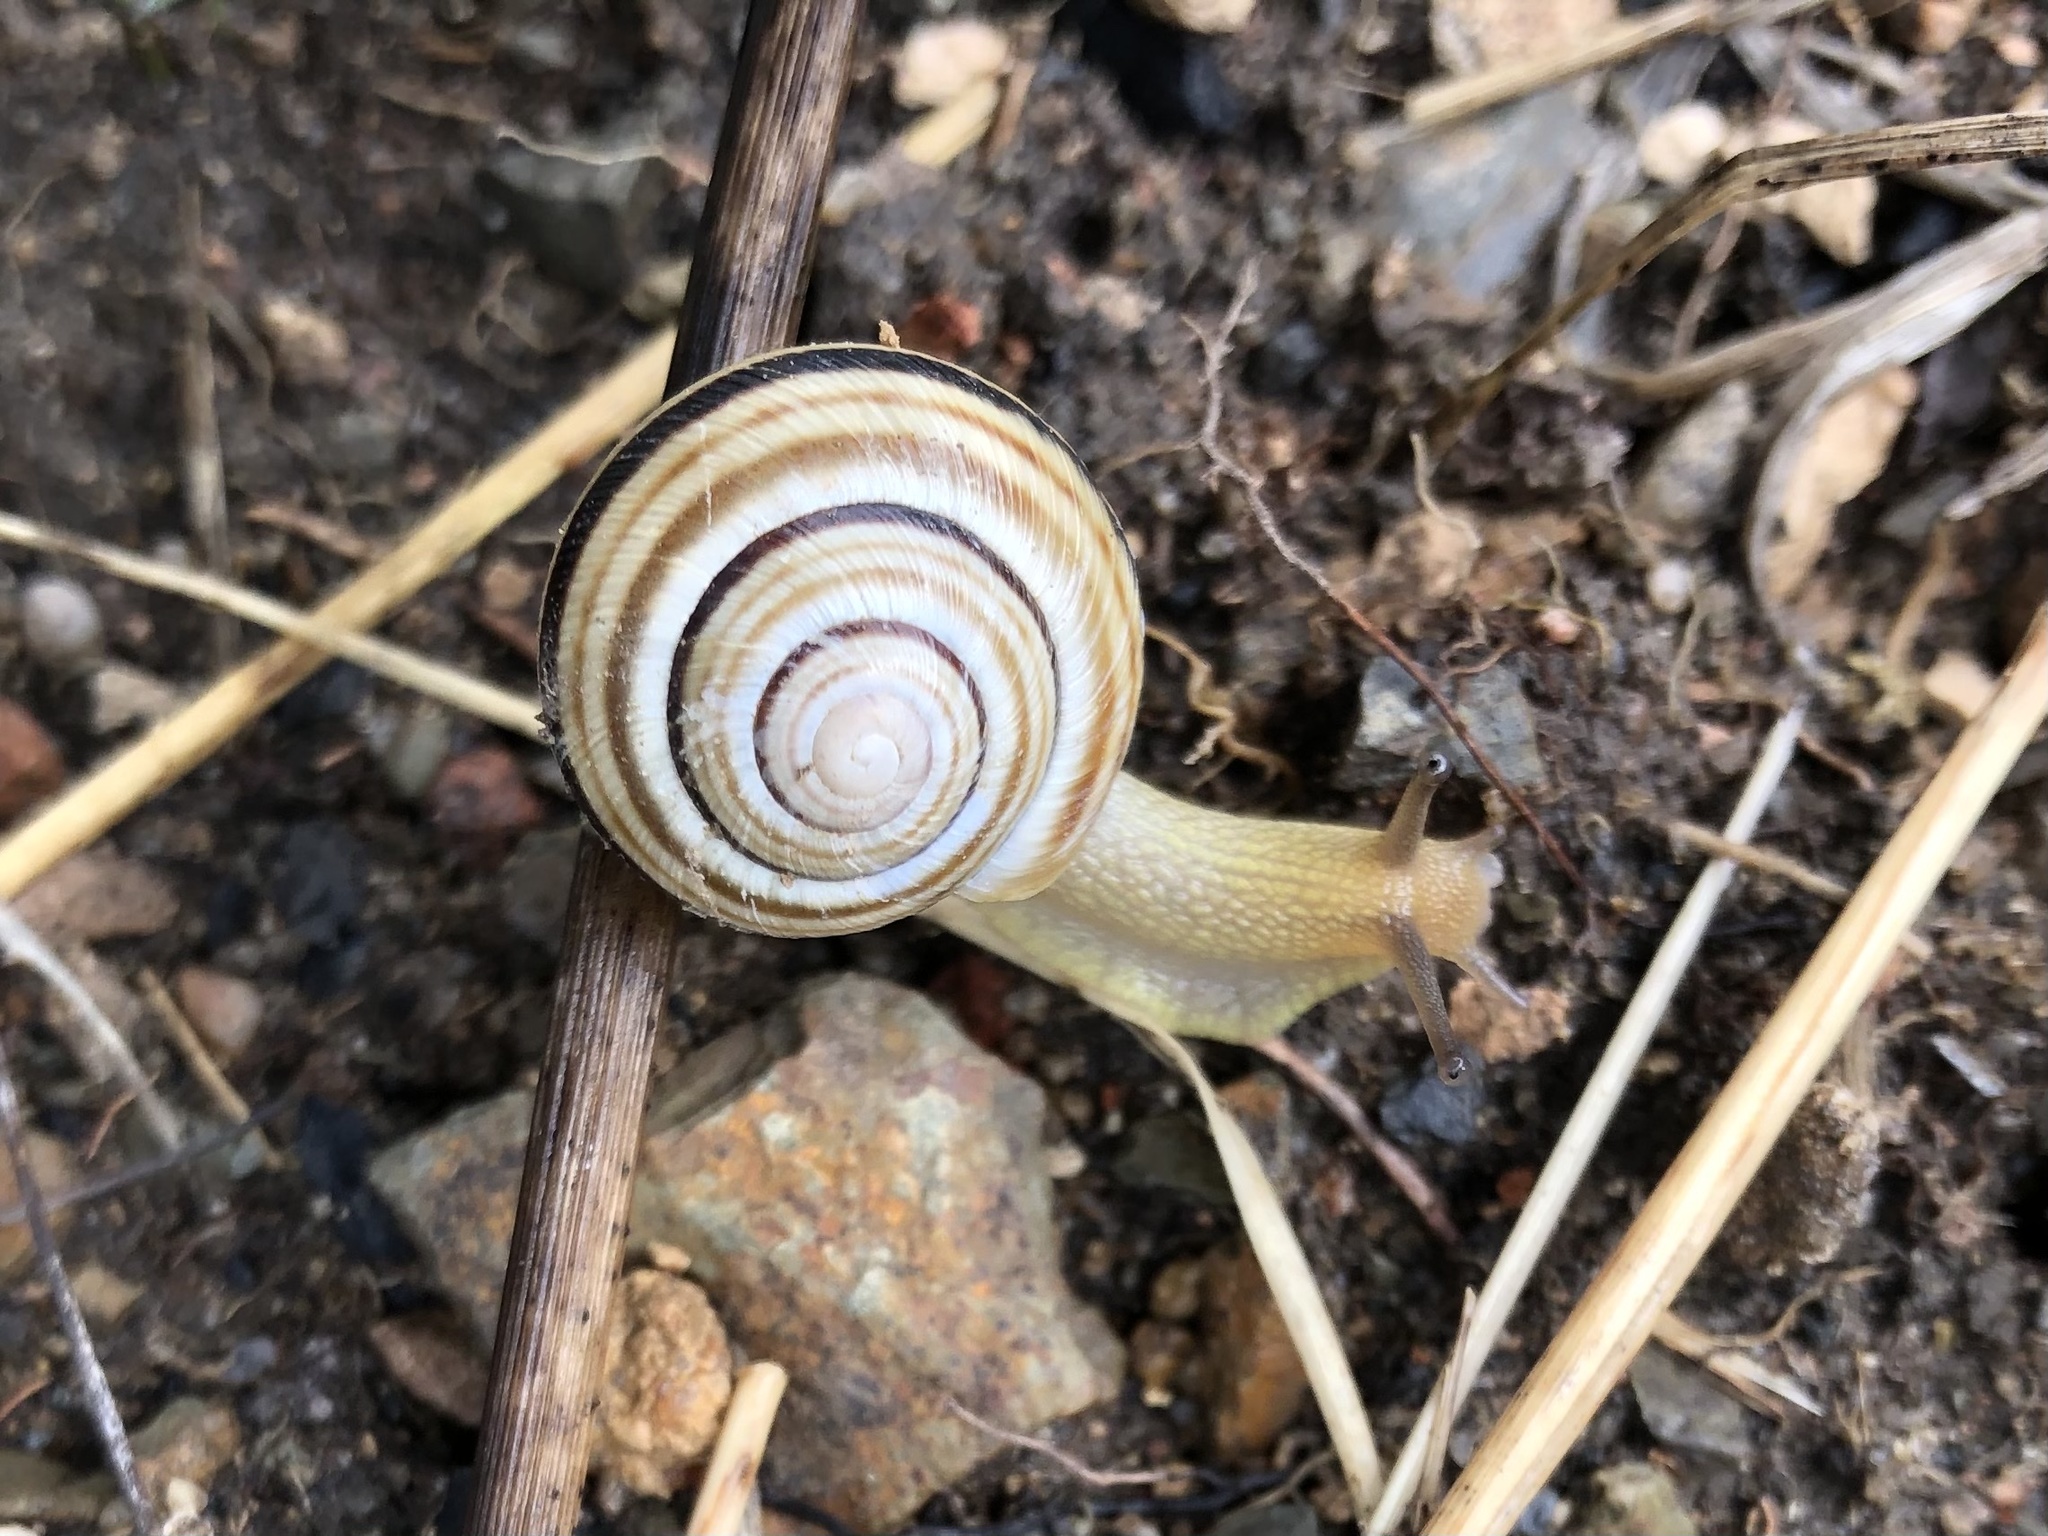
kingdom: Animalia
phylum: Mollusca
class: Gastropoda
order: Stylommatophora
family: Helicidae
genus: Caucasotachea
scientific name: Caucasotachea vindobonensis
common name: European helicid land snail
